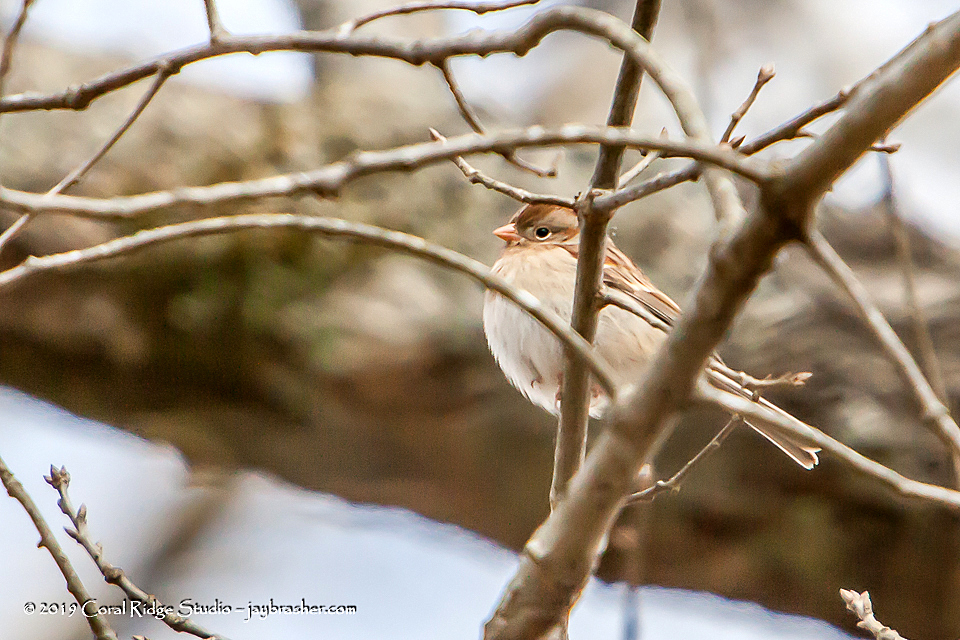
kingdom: Animalia
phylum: Chordata
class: Aves
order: Passeriformes
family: Passerellidae
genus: Spizella
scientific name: Spizella pusilla
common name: Field sparrow
